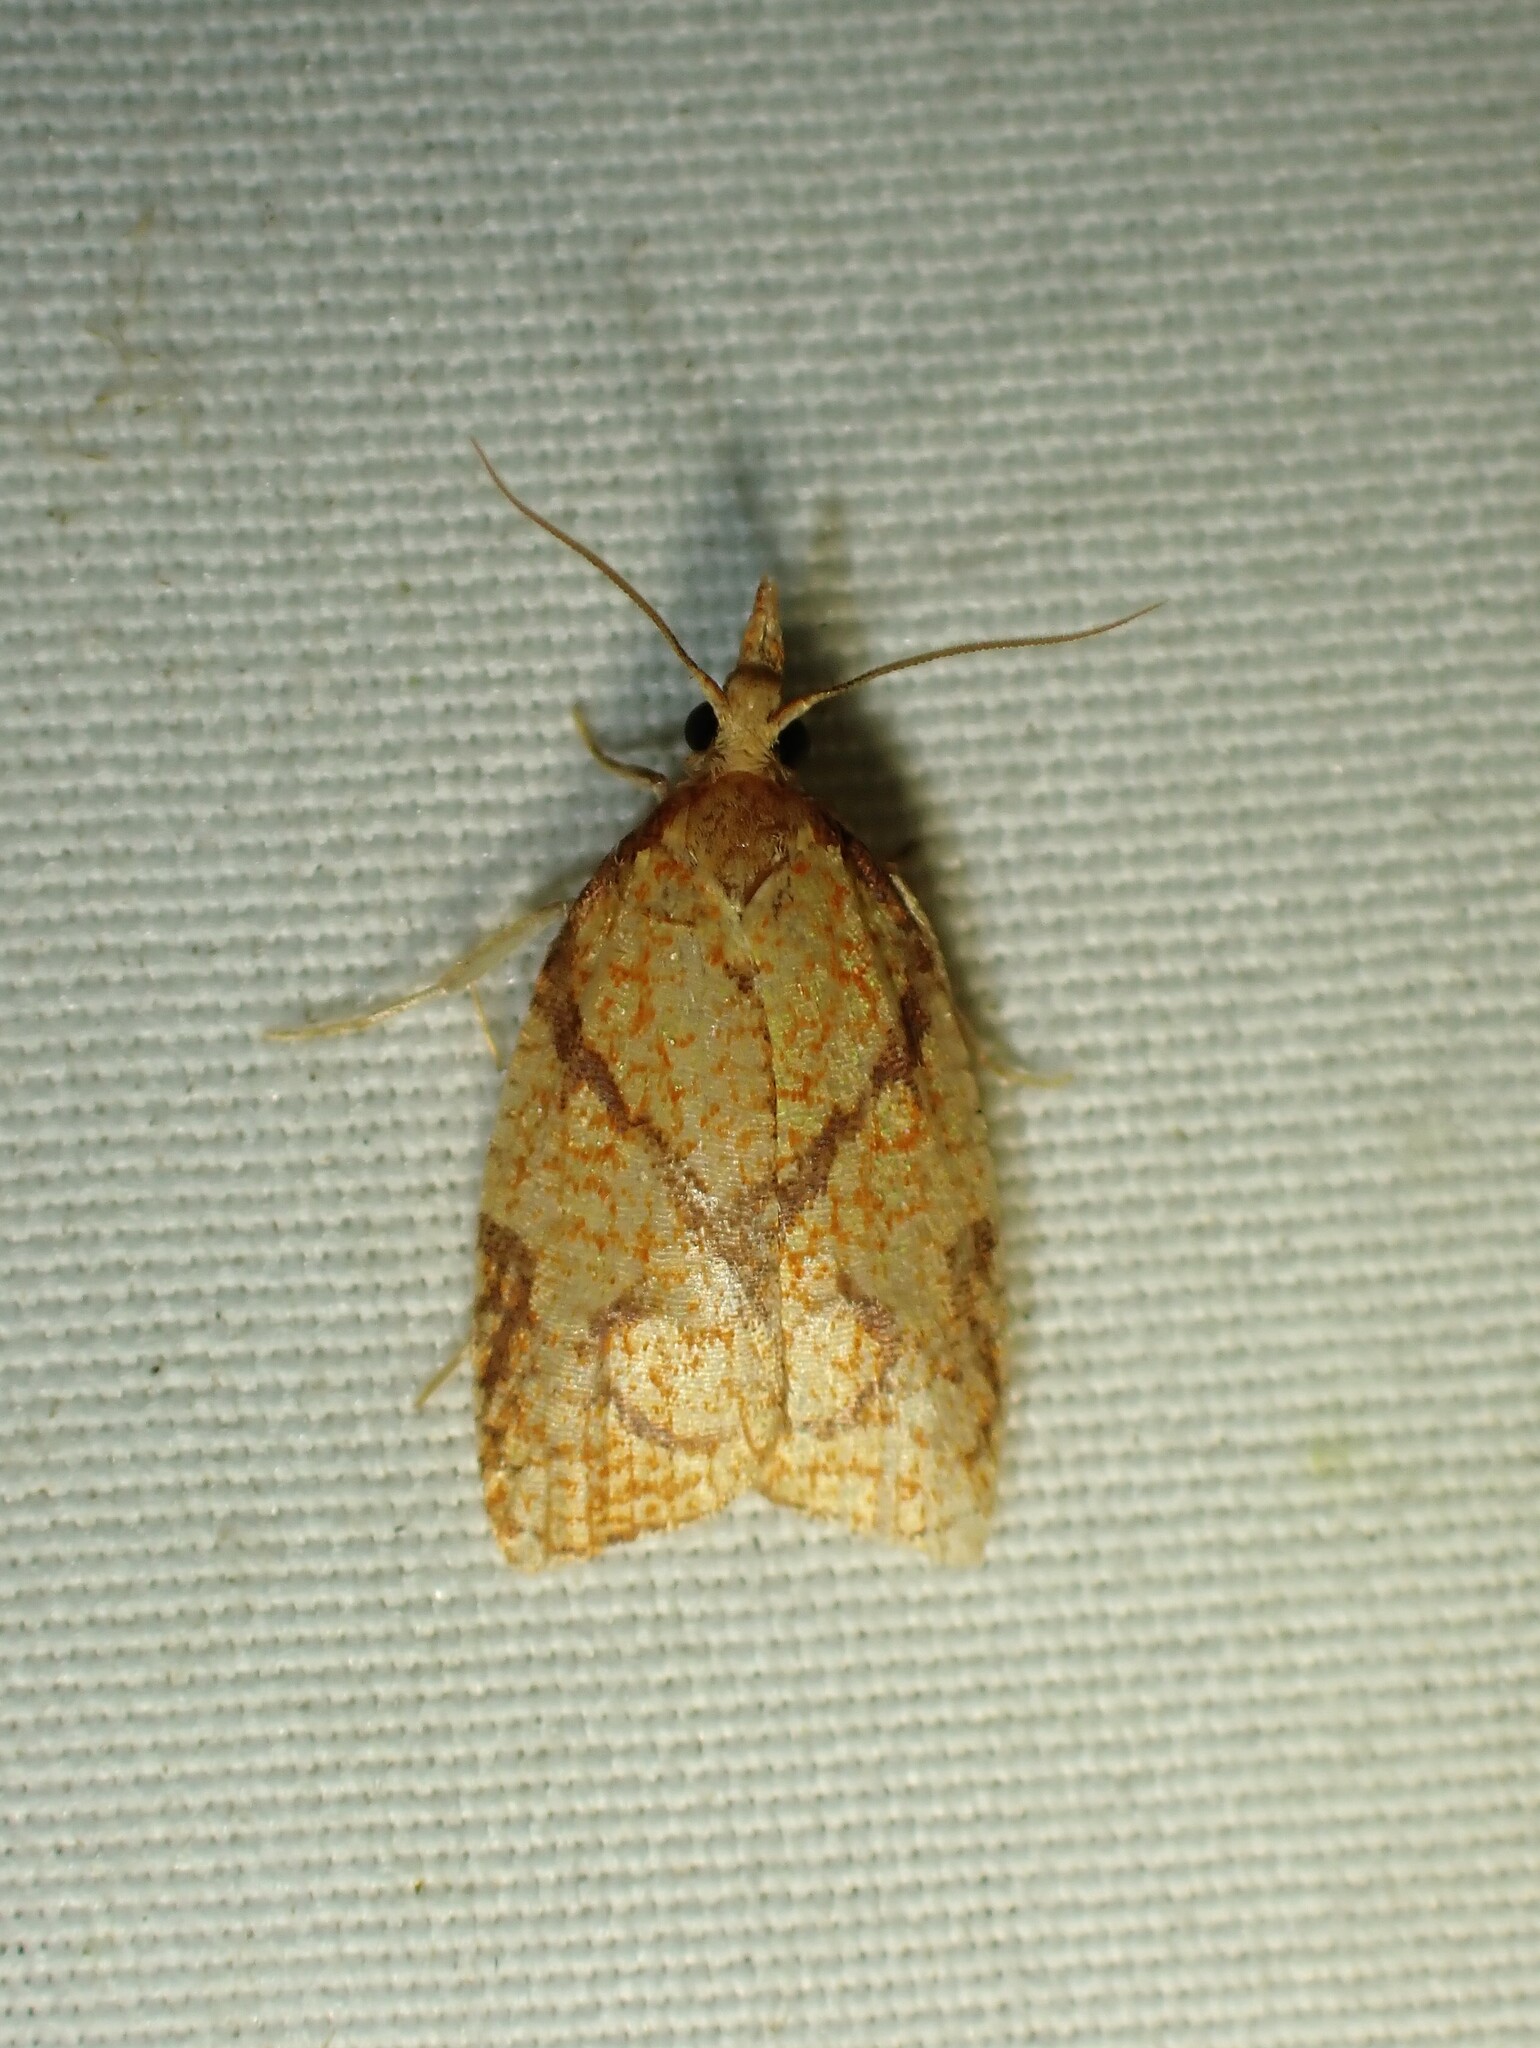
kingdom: Animalia
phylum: Arthropoda
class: Insecta
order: Lepidoptera
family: Tortricidae
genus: Cenopis
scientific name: Cenopis reticulatana
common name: Reticulated fruitworm moth
